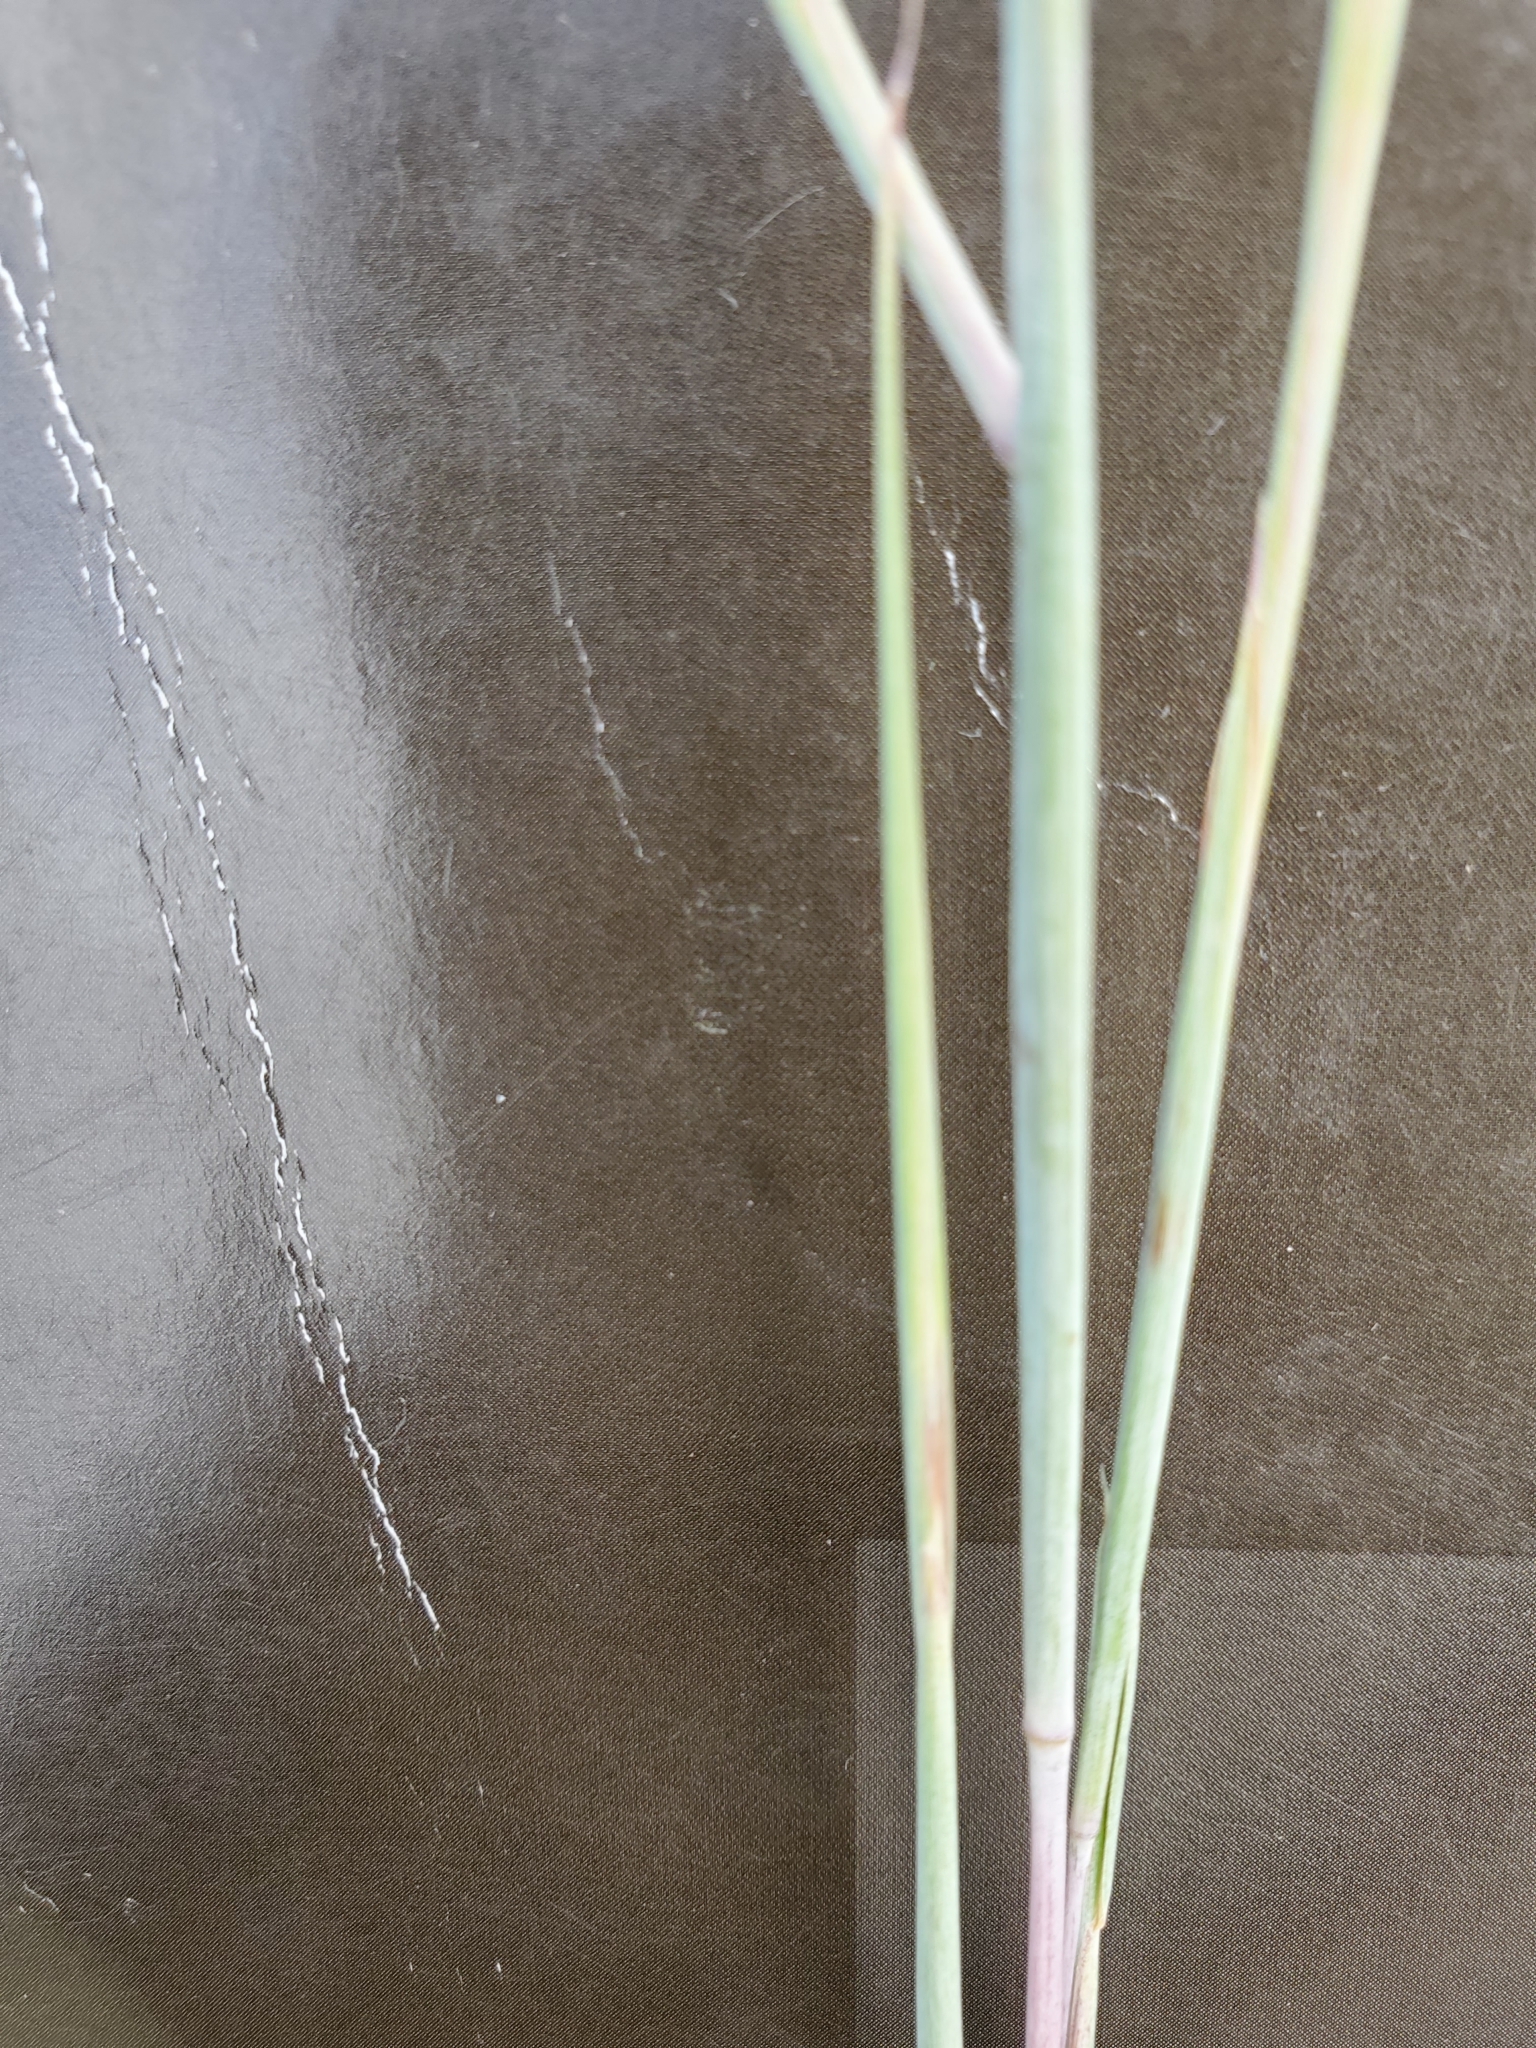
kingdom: Plantae
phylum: Tracheophyta
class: Liliopsida
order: Poales
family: Poaceae
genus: Schizachyrium
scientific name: Schizachyrium scoparium
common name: Little bluestem
